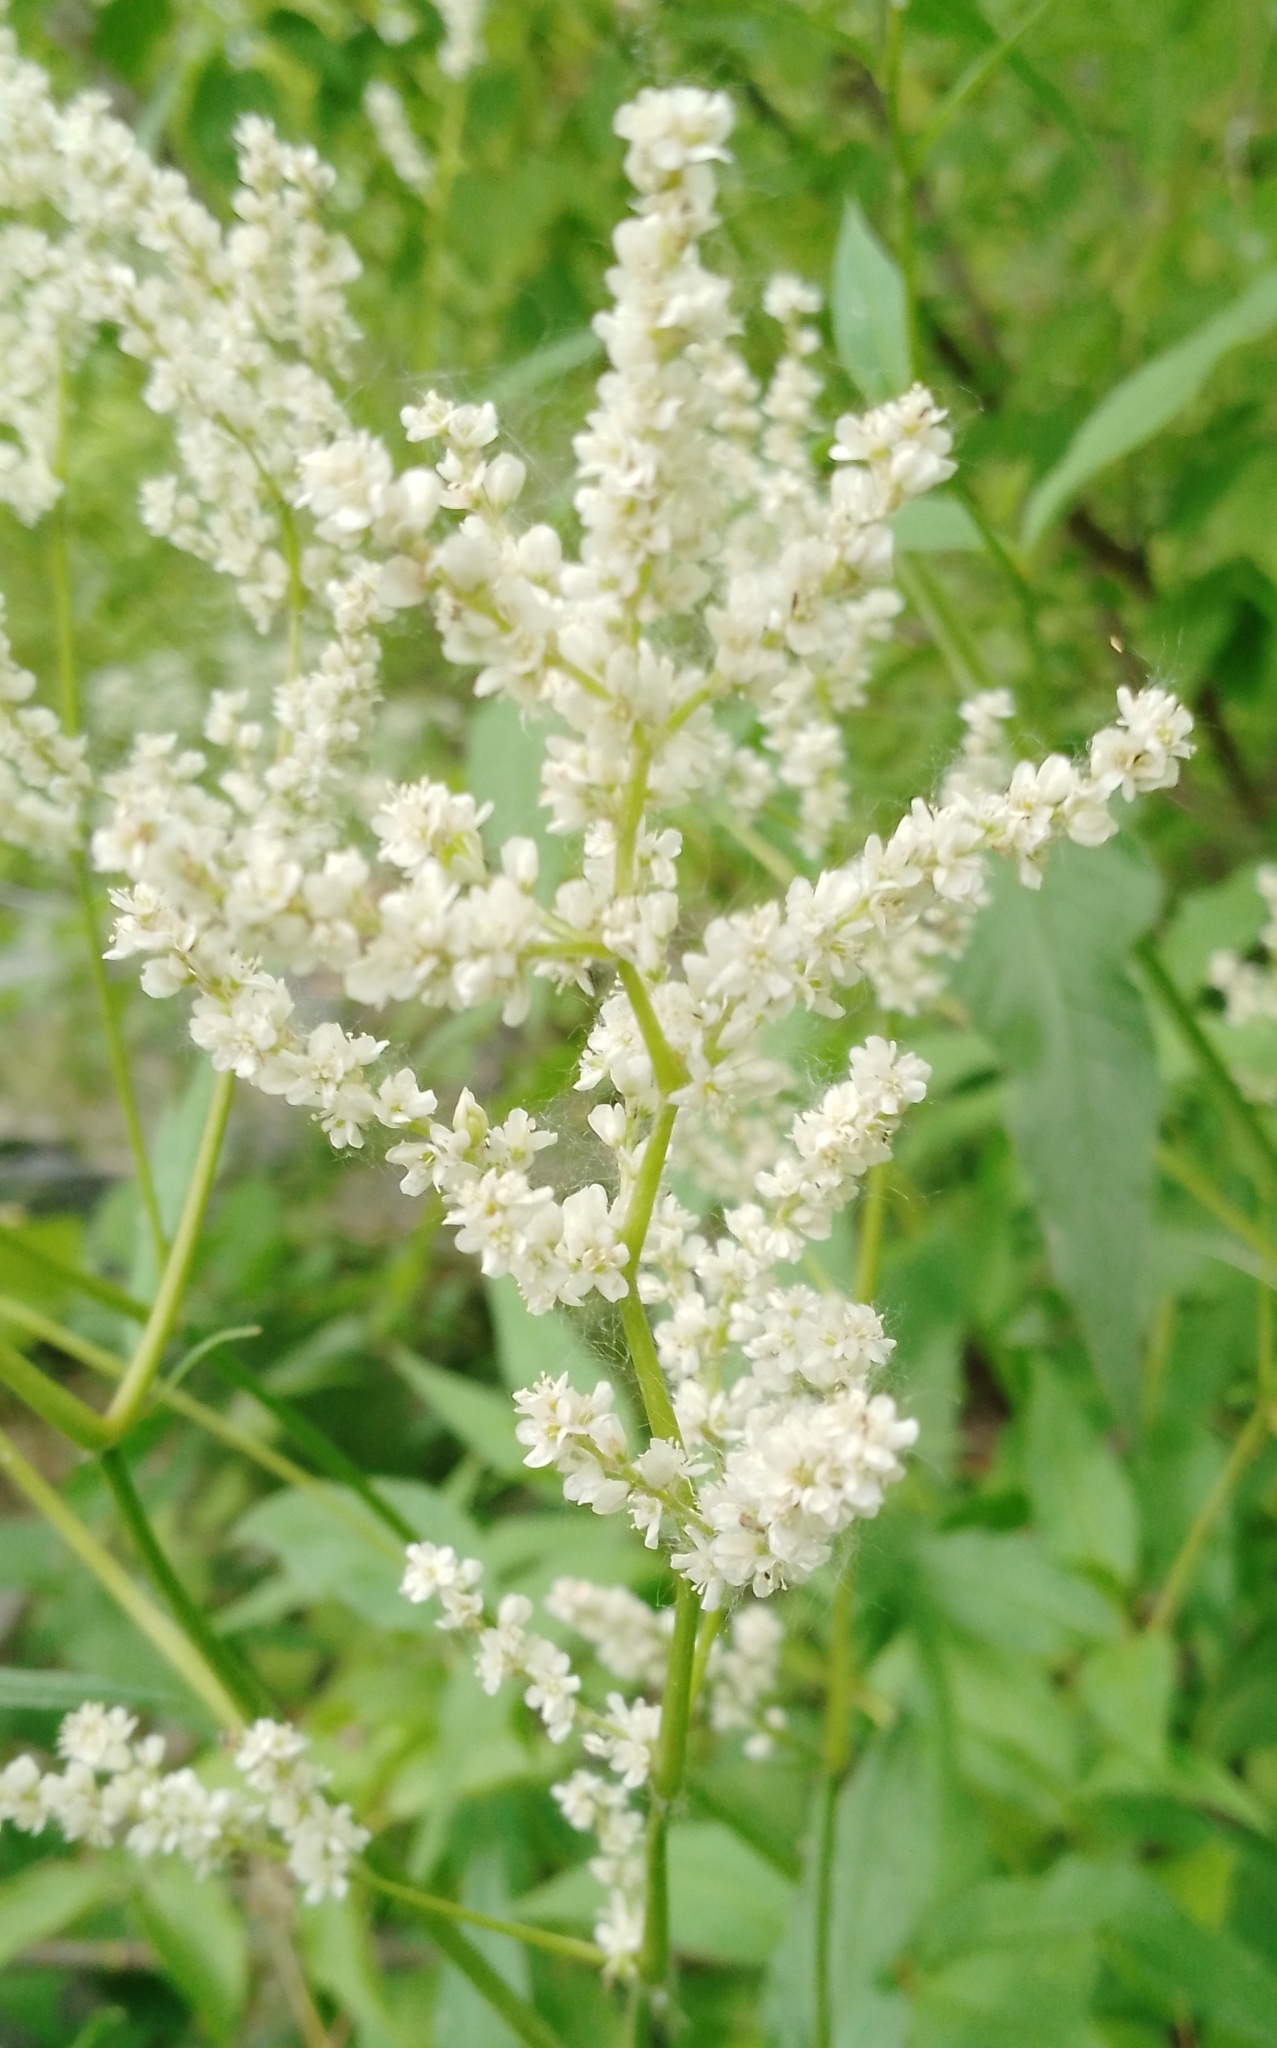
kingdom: Plantae
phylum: Tracheophyta
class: Magnoliopsida
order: Caryophyllales
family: Polygonaceae
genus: Koenigia
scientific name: Koenigia alpina
